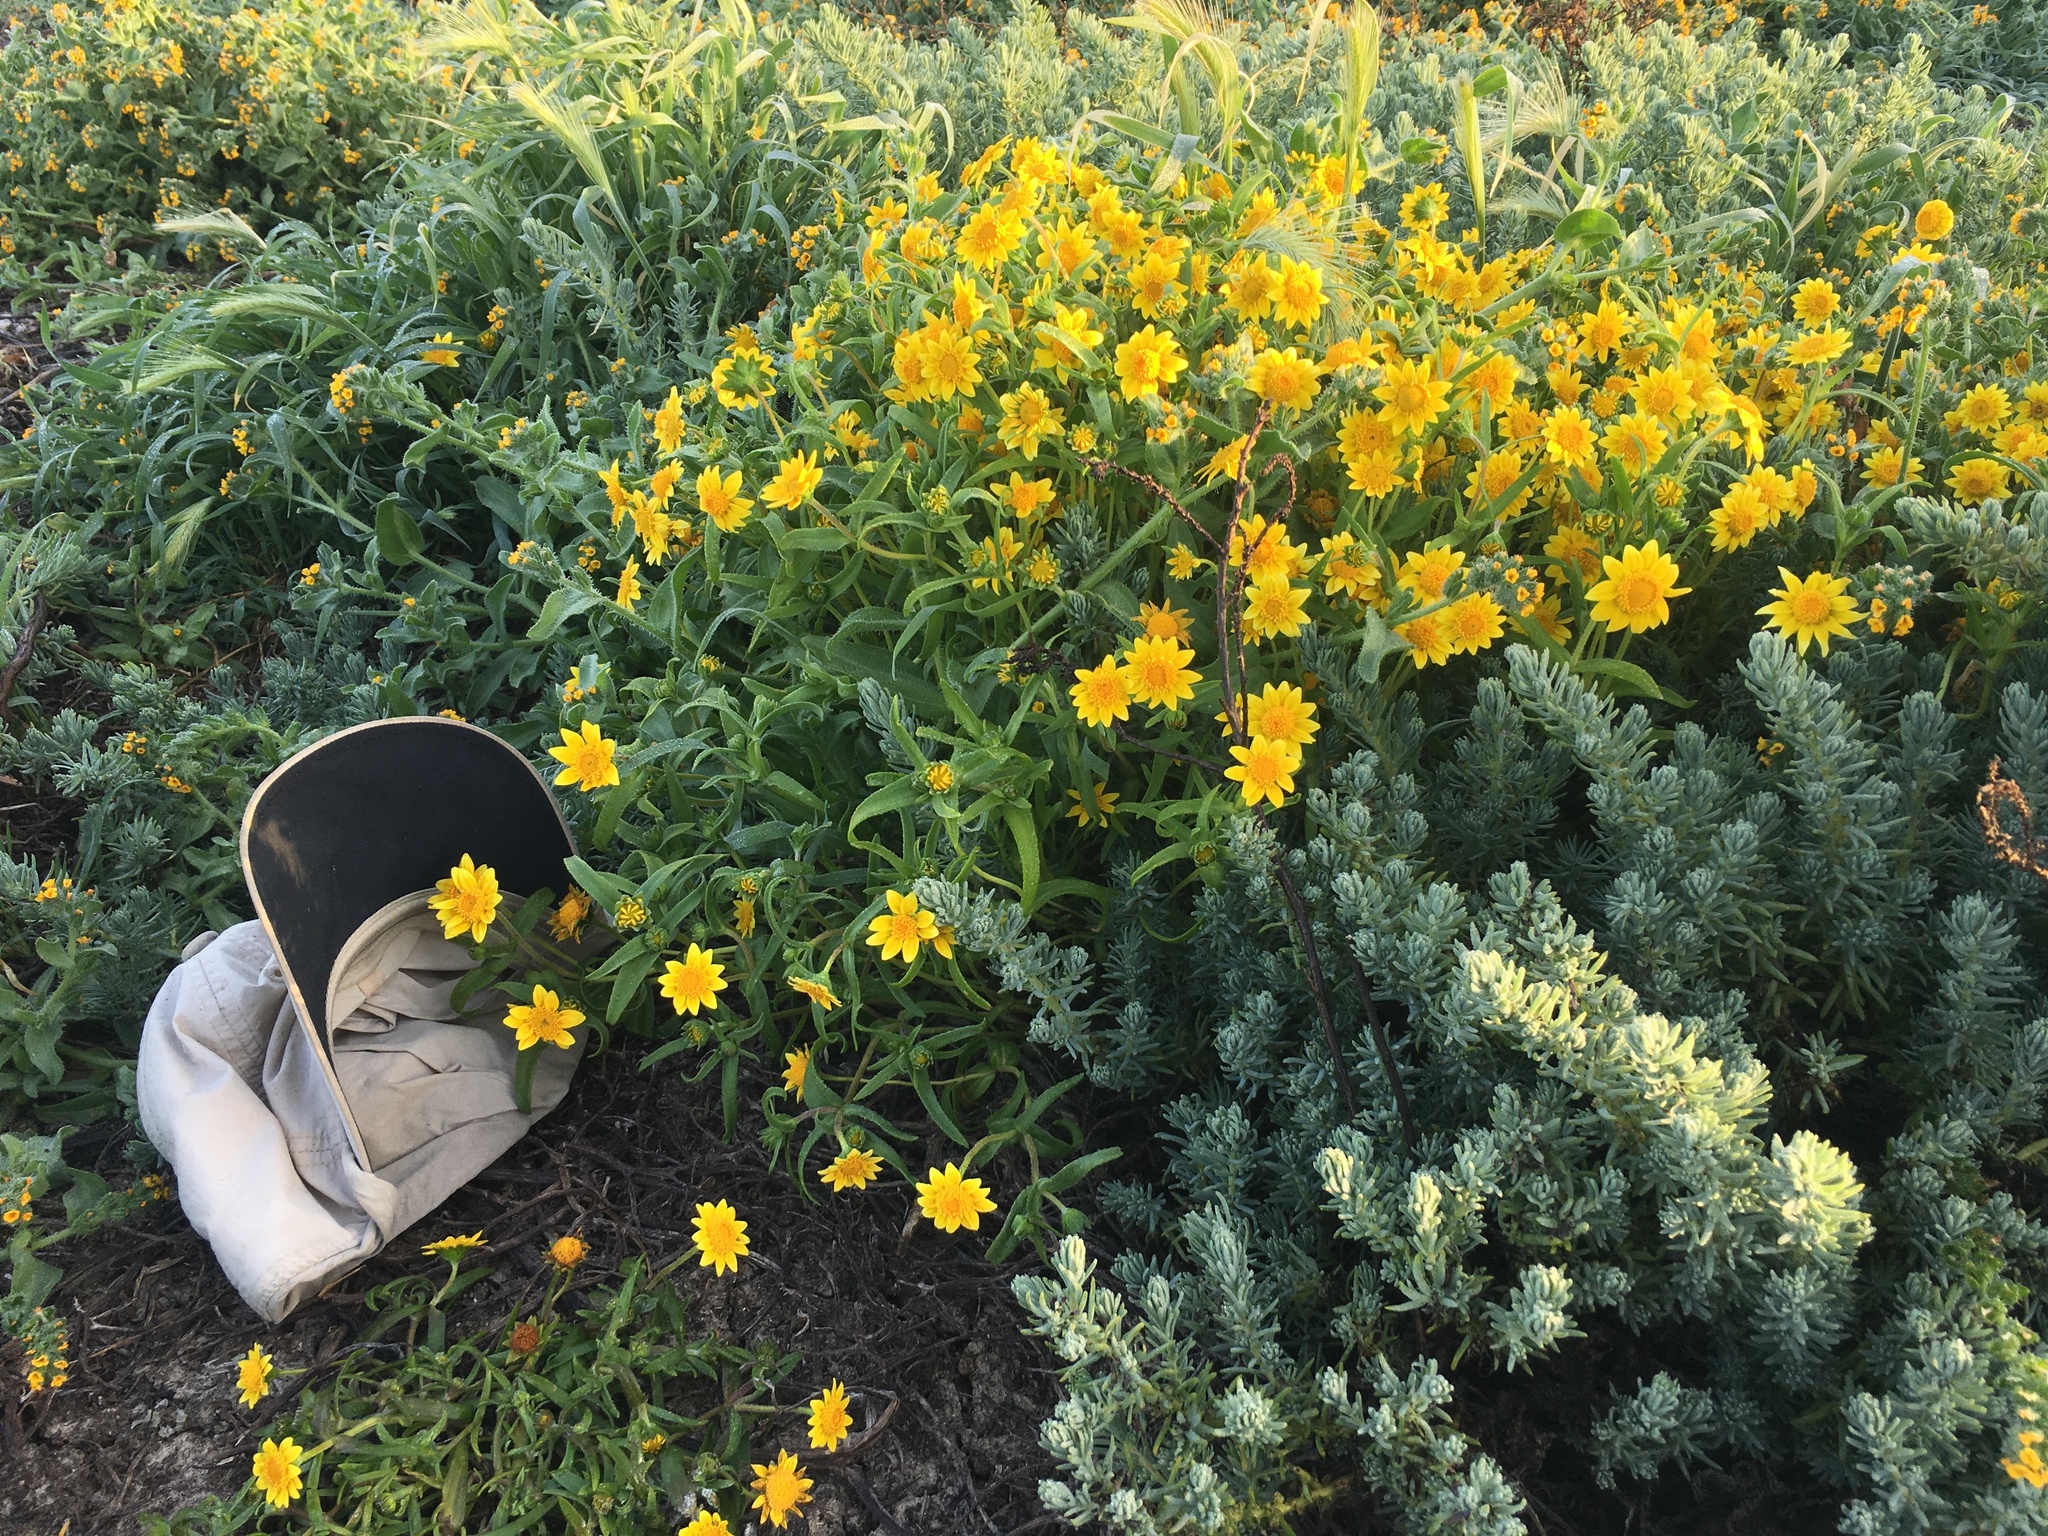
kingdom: Plantae
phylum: Tracheophyta
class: Magnoliopsida
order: Asterales
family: Asteraceae
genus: Lasthenia
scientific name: Lasthenia gracilis
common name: Common goldfields
